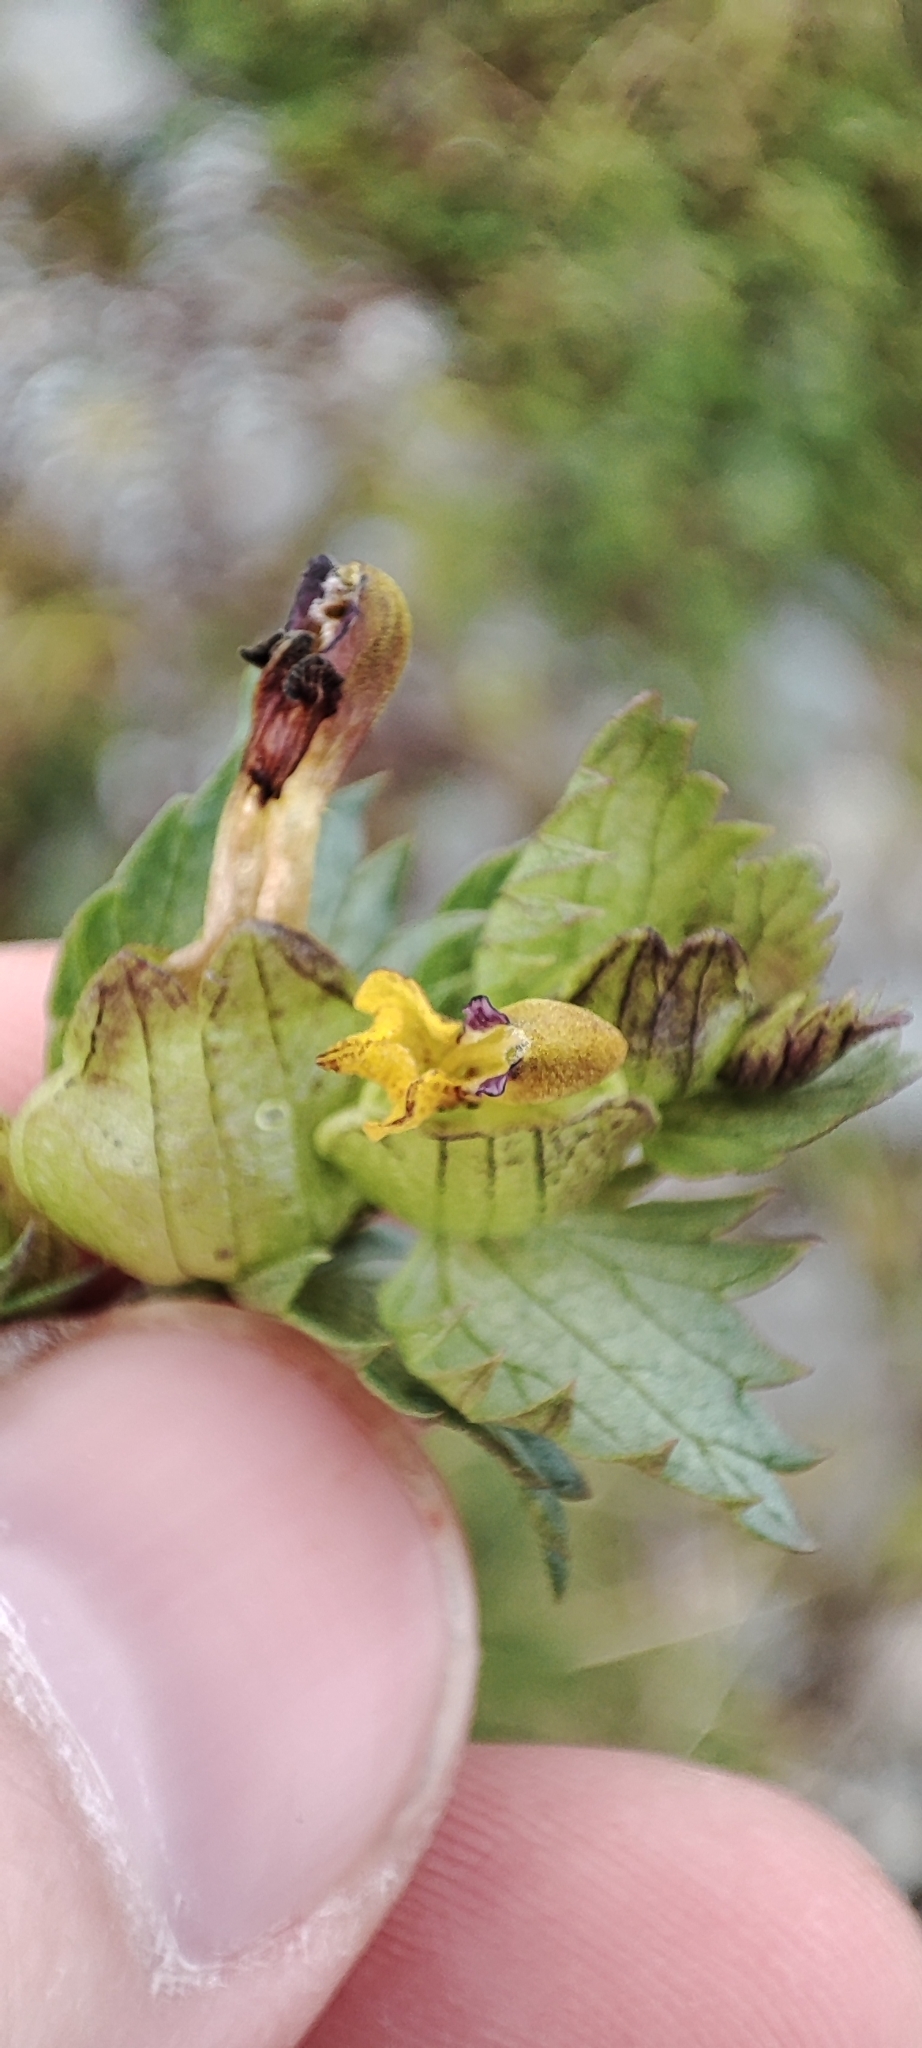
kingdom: Plantae
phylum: Tracheophyta
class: Magnoliopsida
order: Lamiales
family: Orobanchaceae
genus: Rhinanthus
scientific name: Rhinanthus minor
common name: Yellow-rattle
